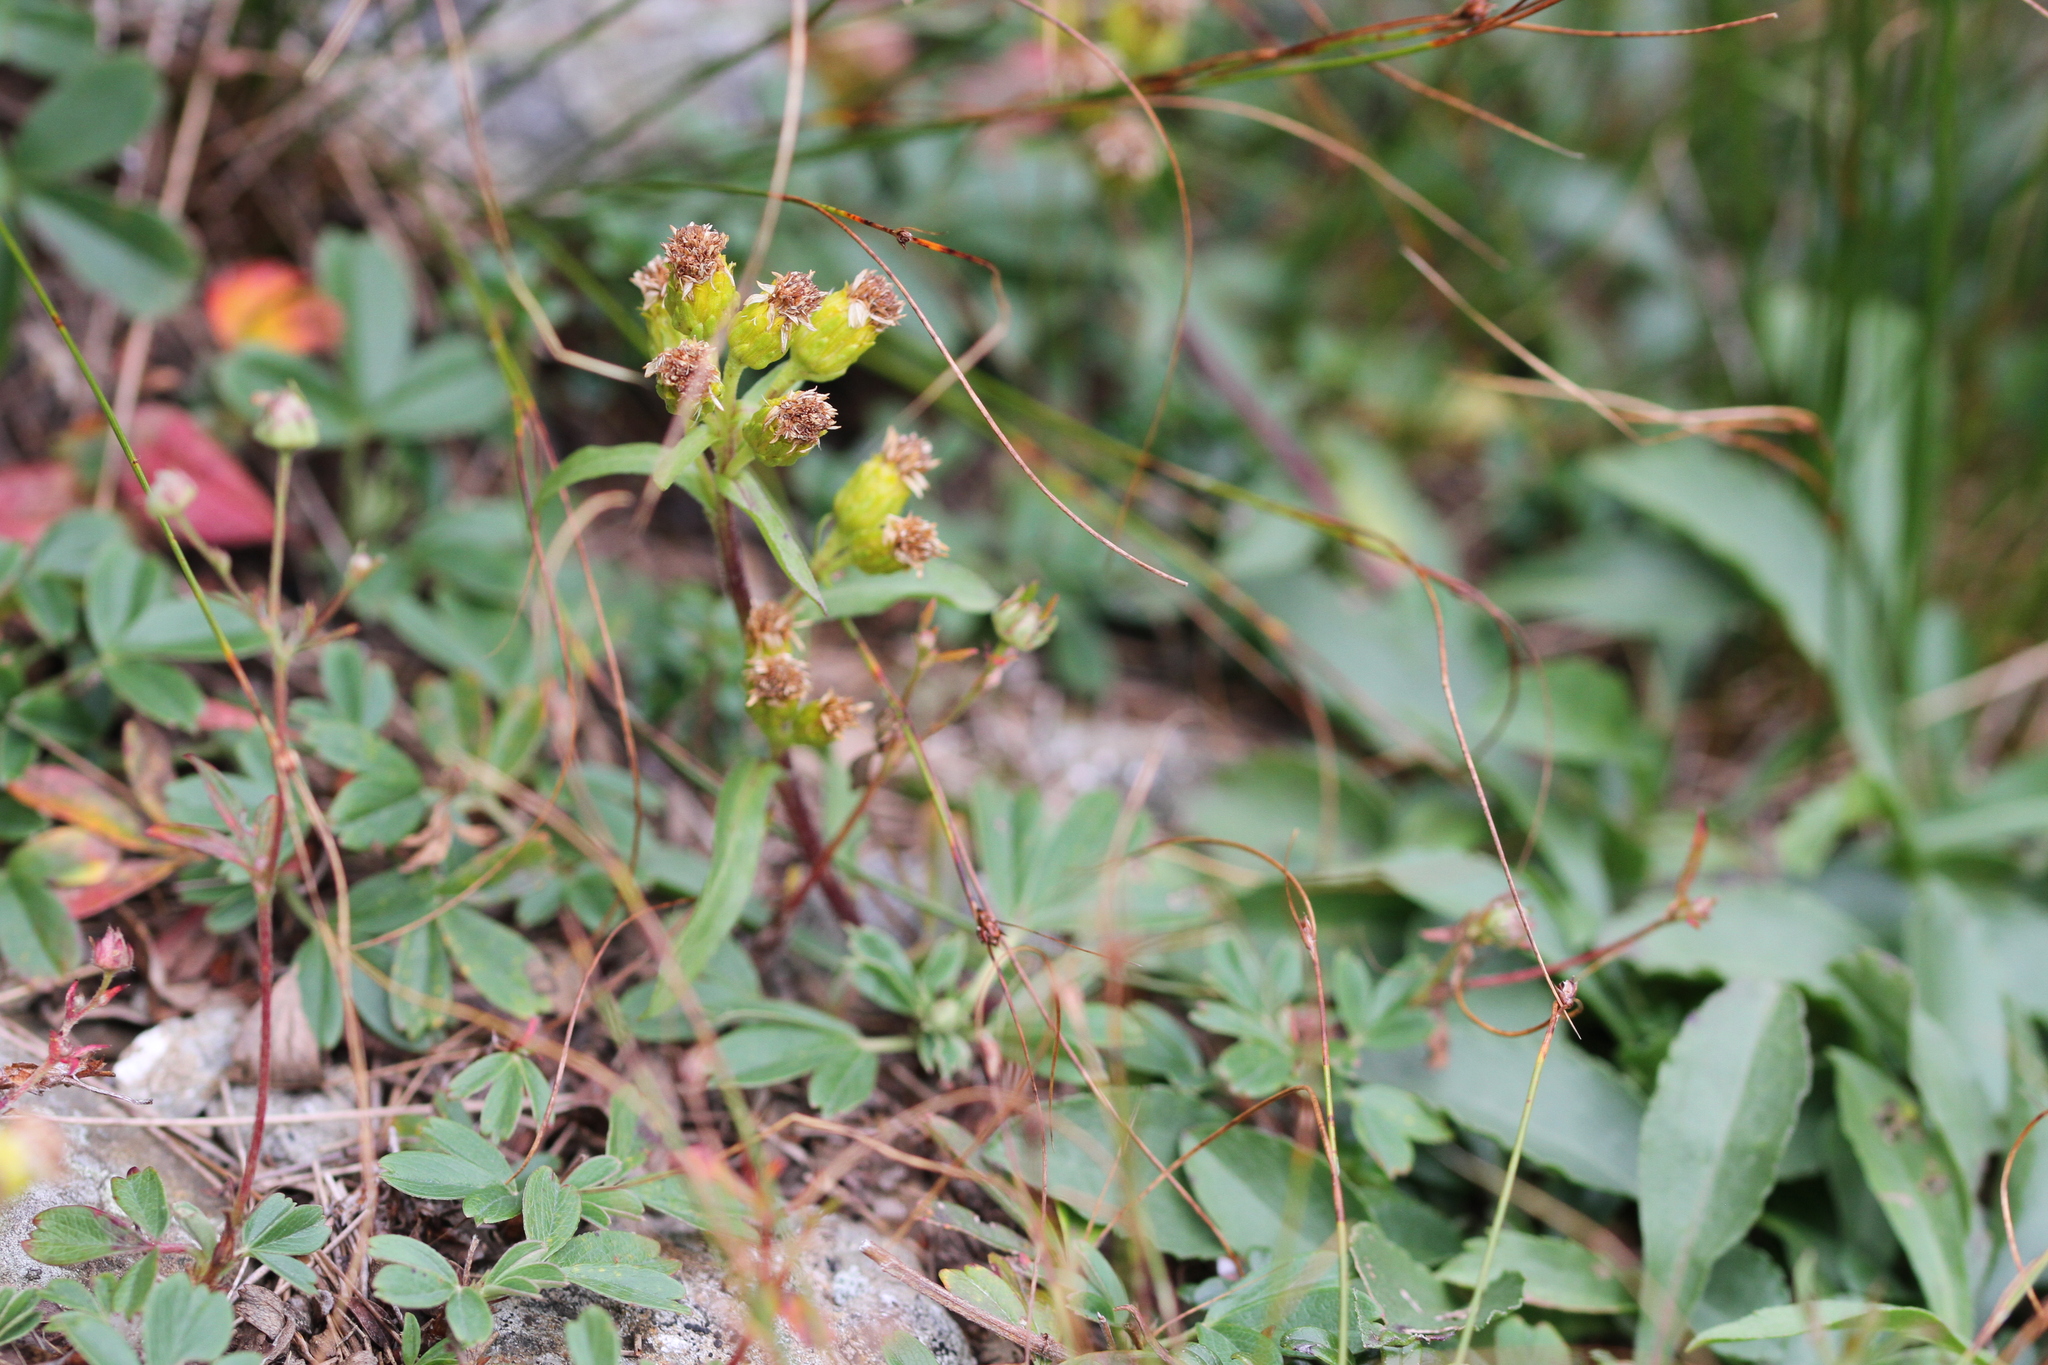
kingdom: Plantae
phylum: Tracheophyta
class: Magnoliopsida
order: Asterales
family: Asteraceae
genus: Solidago
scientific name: Solidago leiocarpa
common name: Cutler's alpine goldenrod
